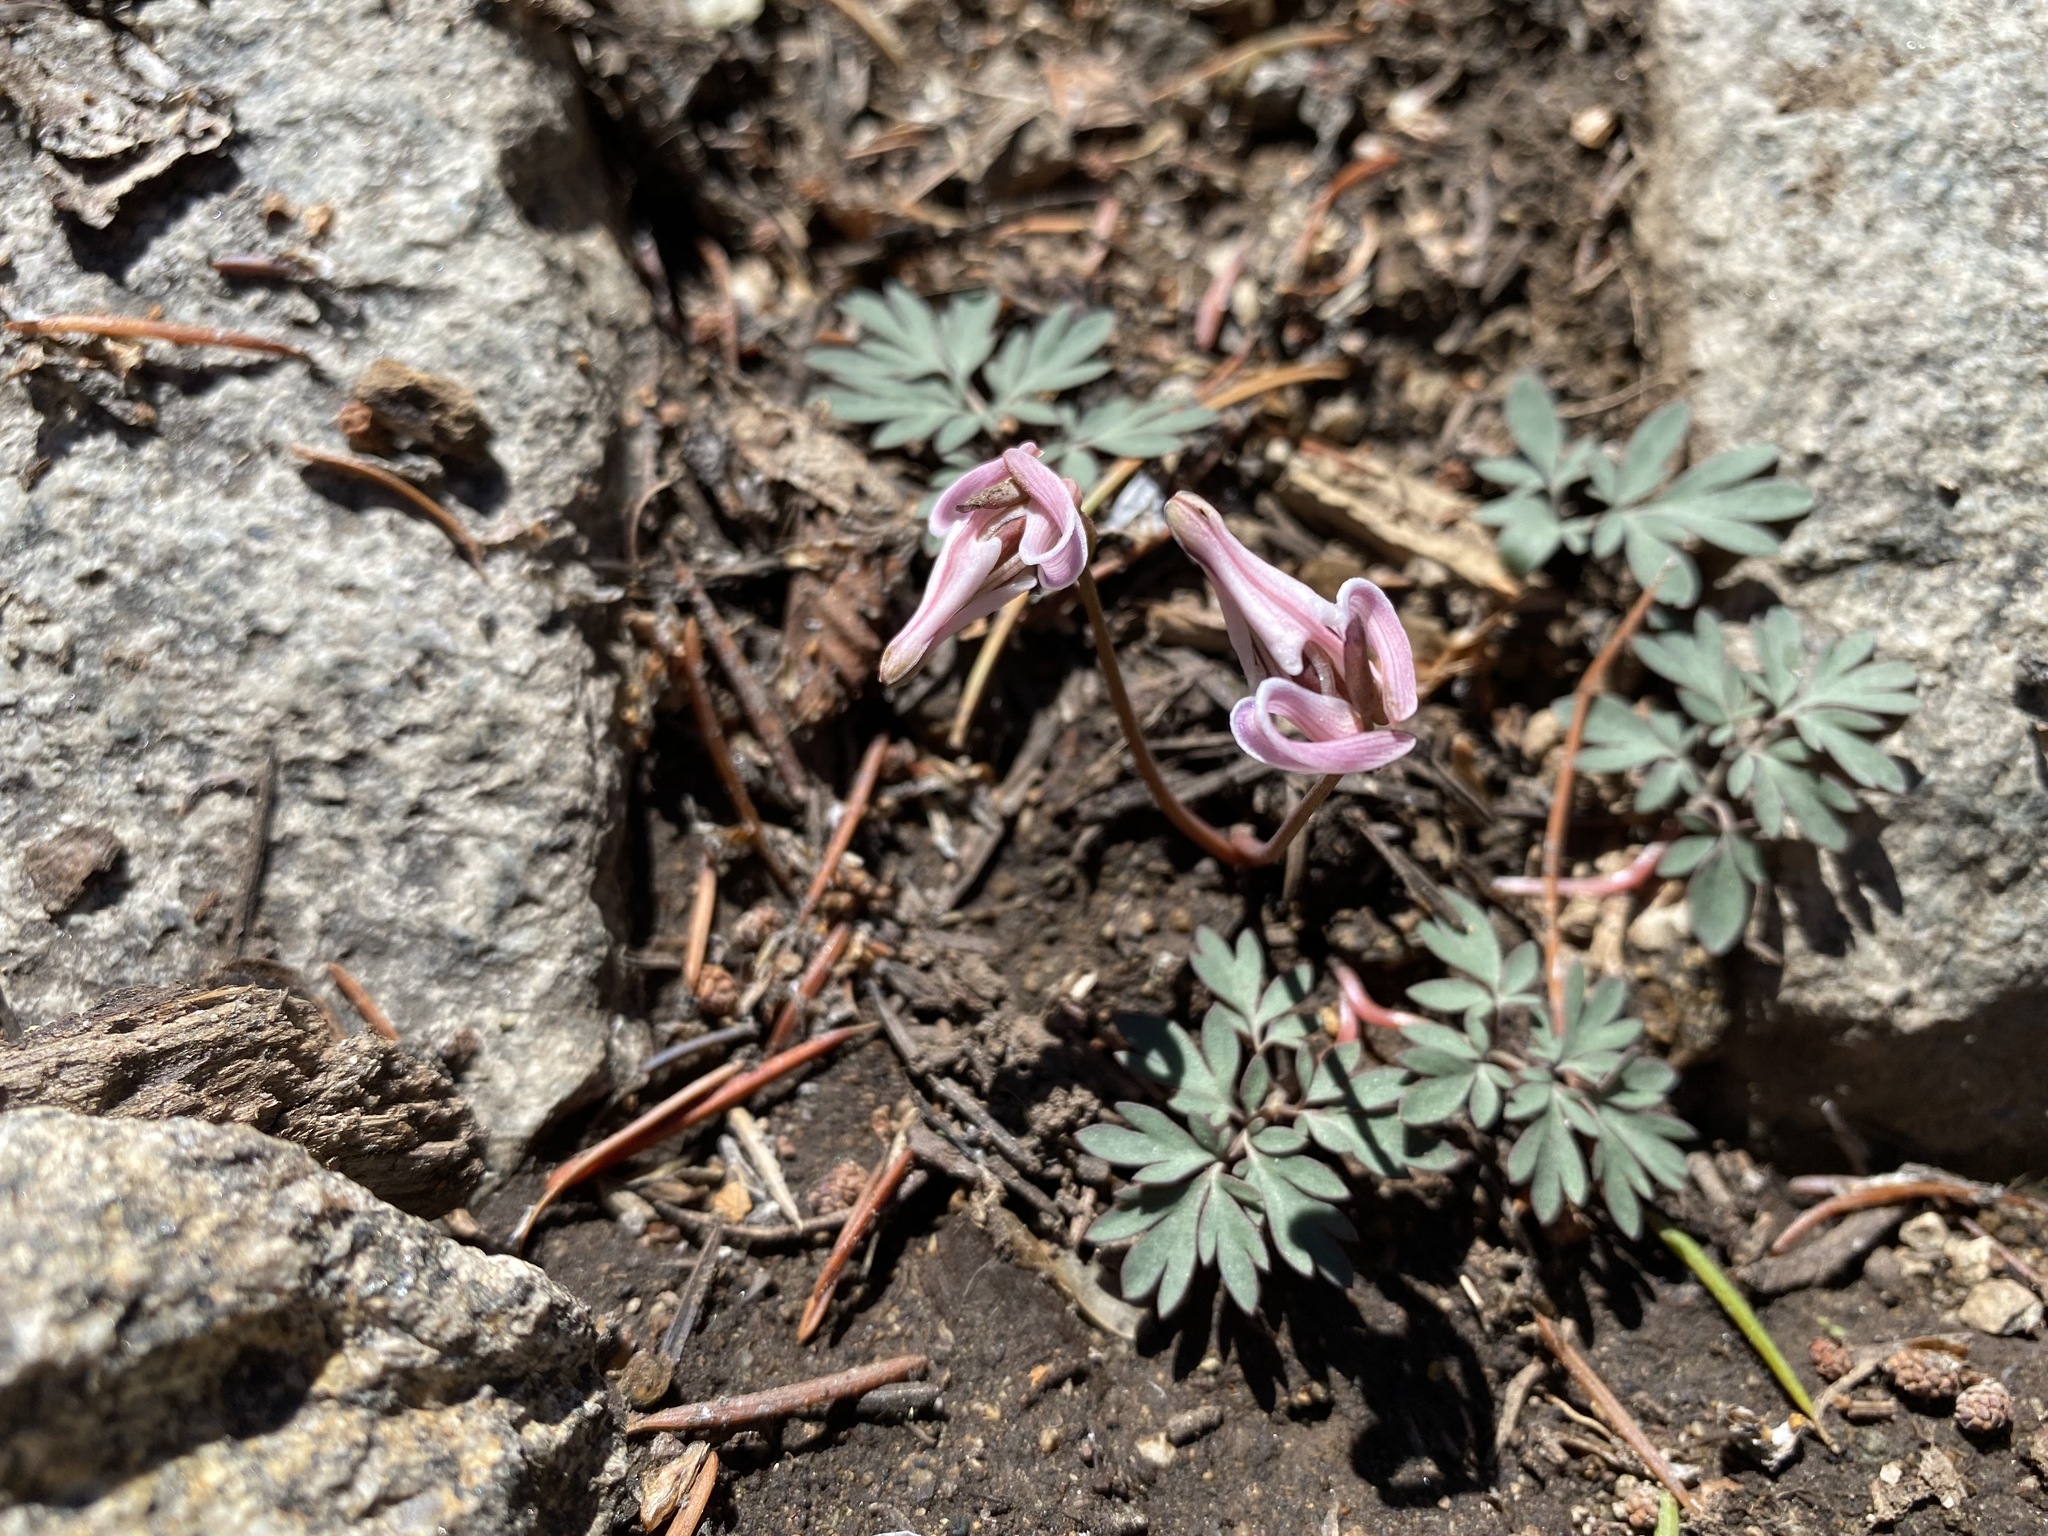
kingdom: Plantae
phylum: Tracheophyta
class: Magnoliopsida
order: Ranunculales
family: Papaveraceae
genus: Dicentra
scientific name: Dicentra uniflora
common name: Steer's-head
